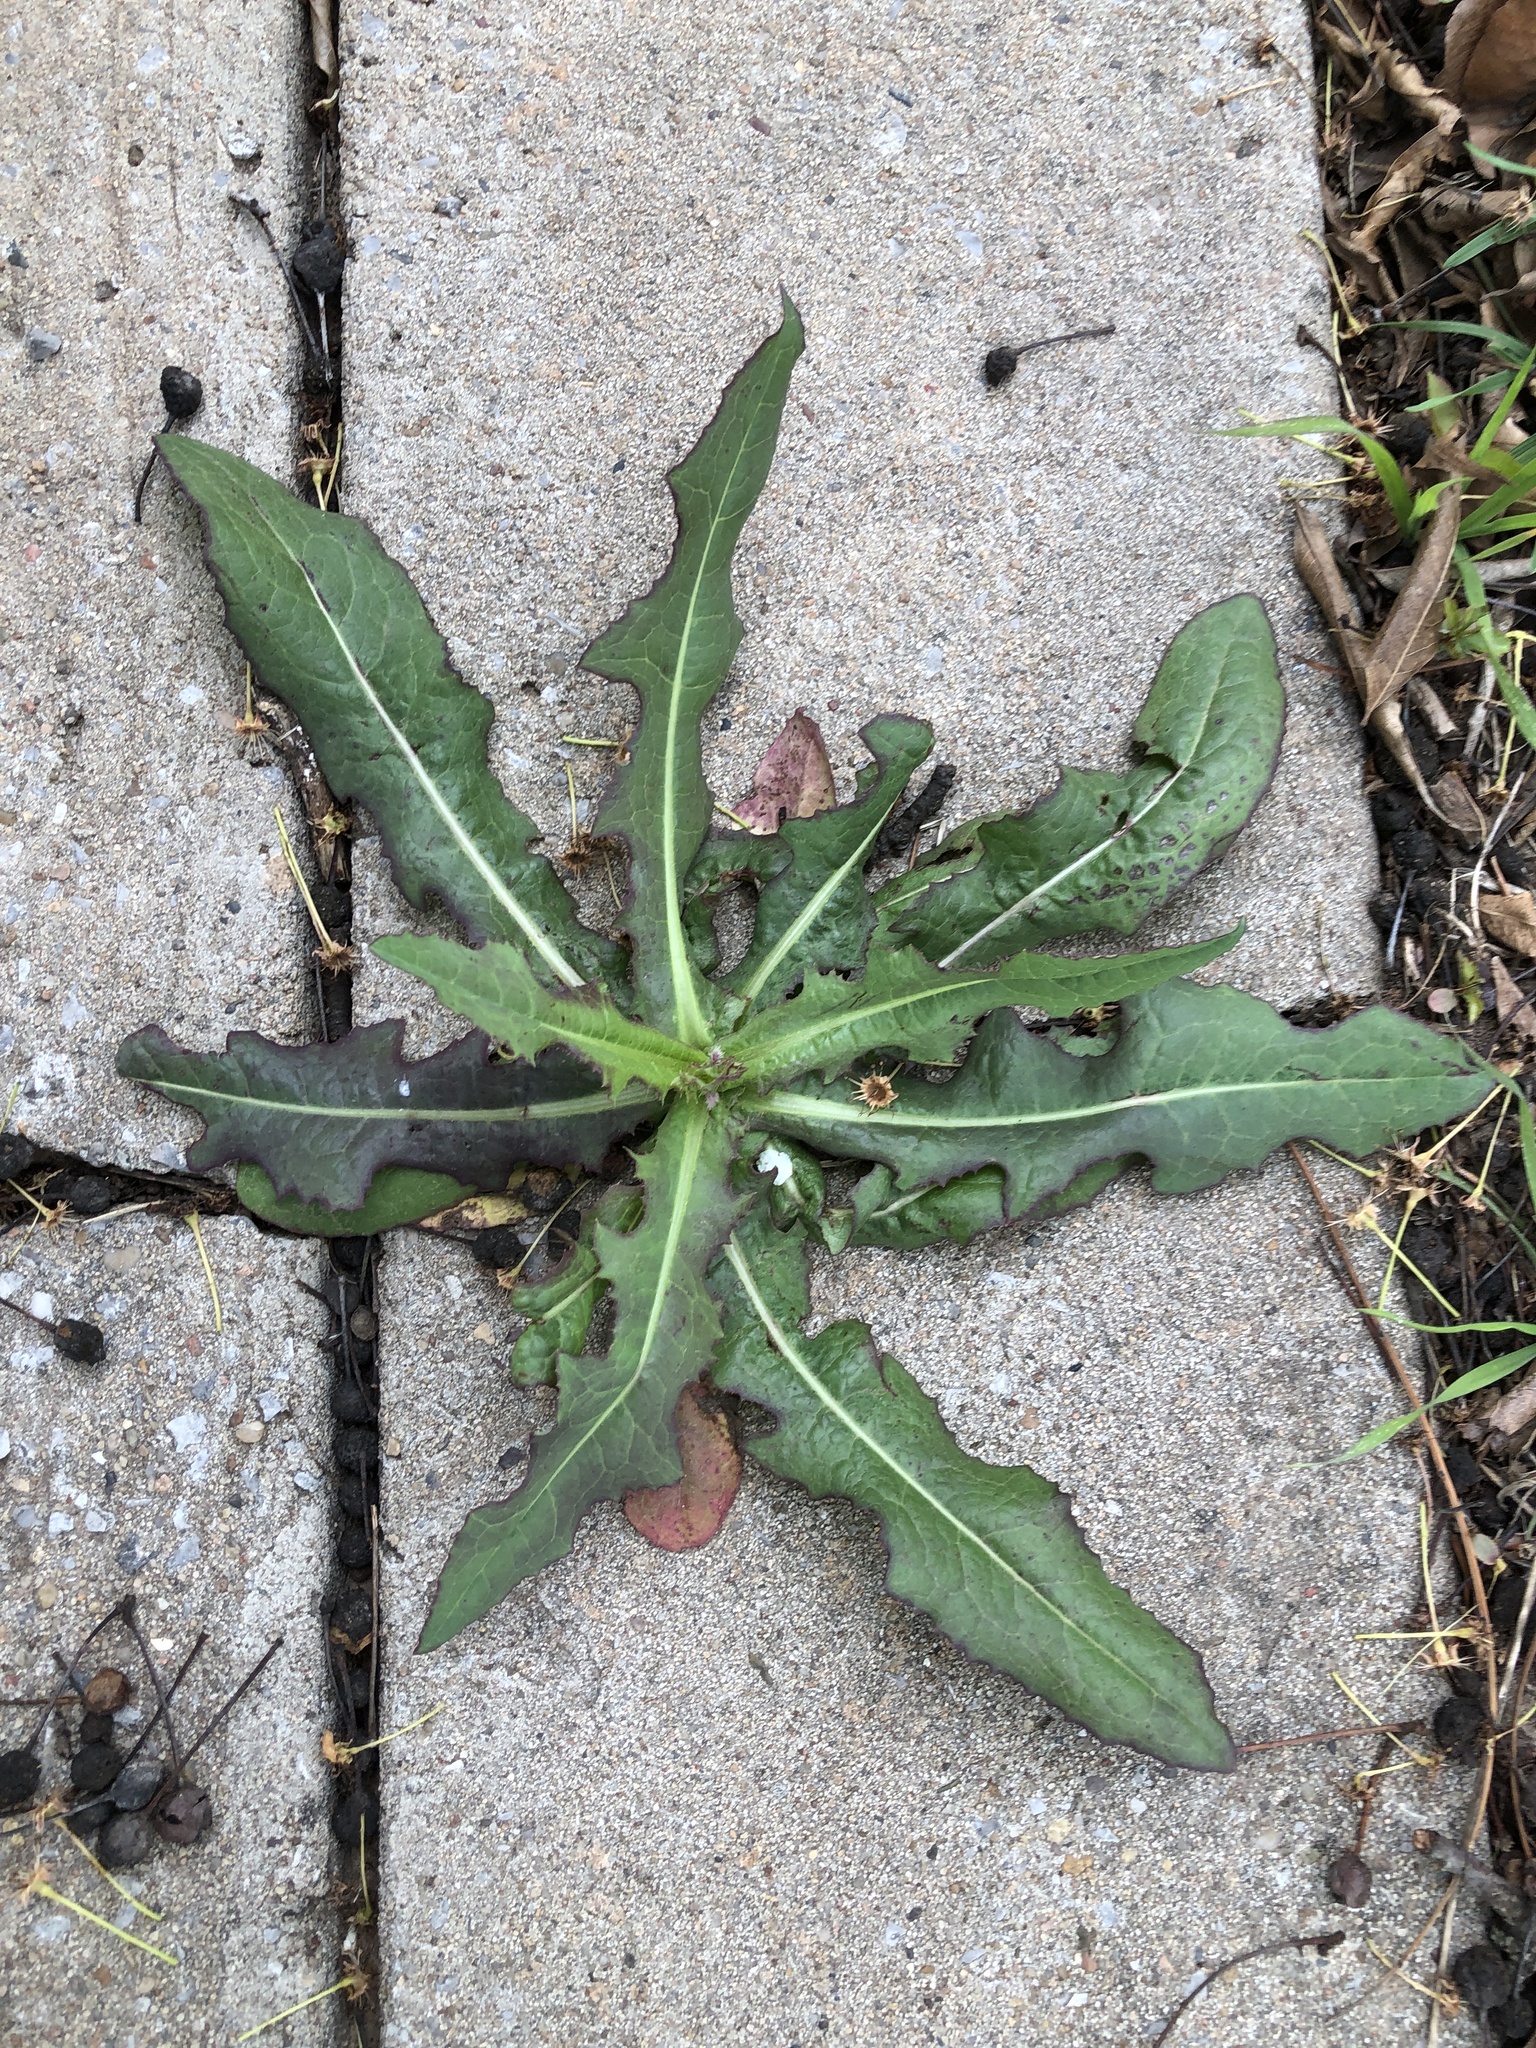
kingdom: Plantae
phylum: Tracheophyta
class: Magnoliopsida
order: Asterales
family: Asteraceae
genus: Lactuca
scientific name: Lactuca serriola
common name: Prickly lettuce
